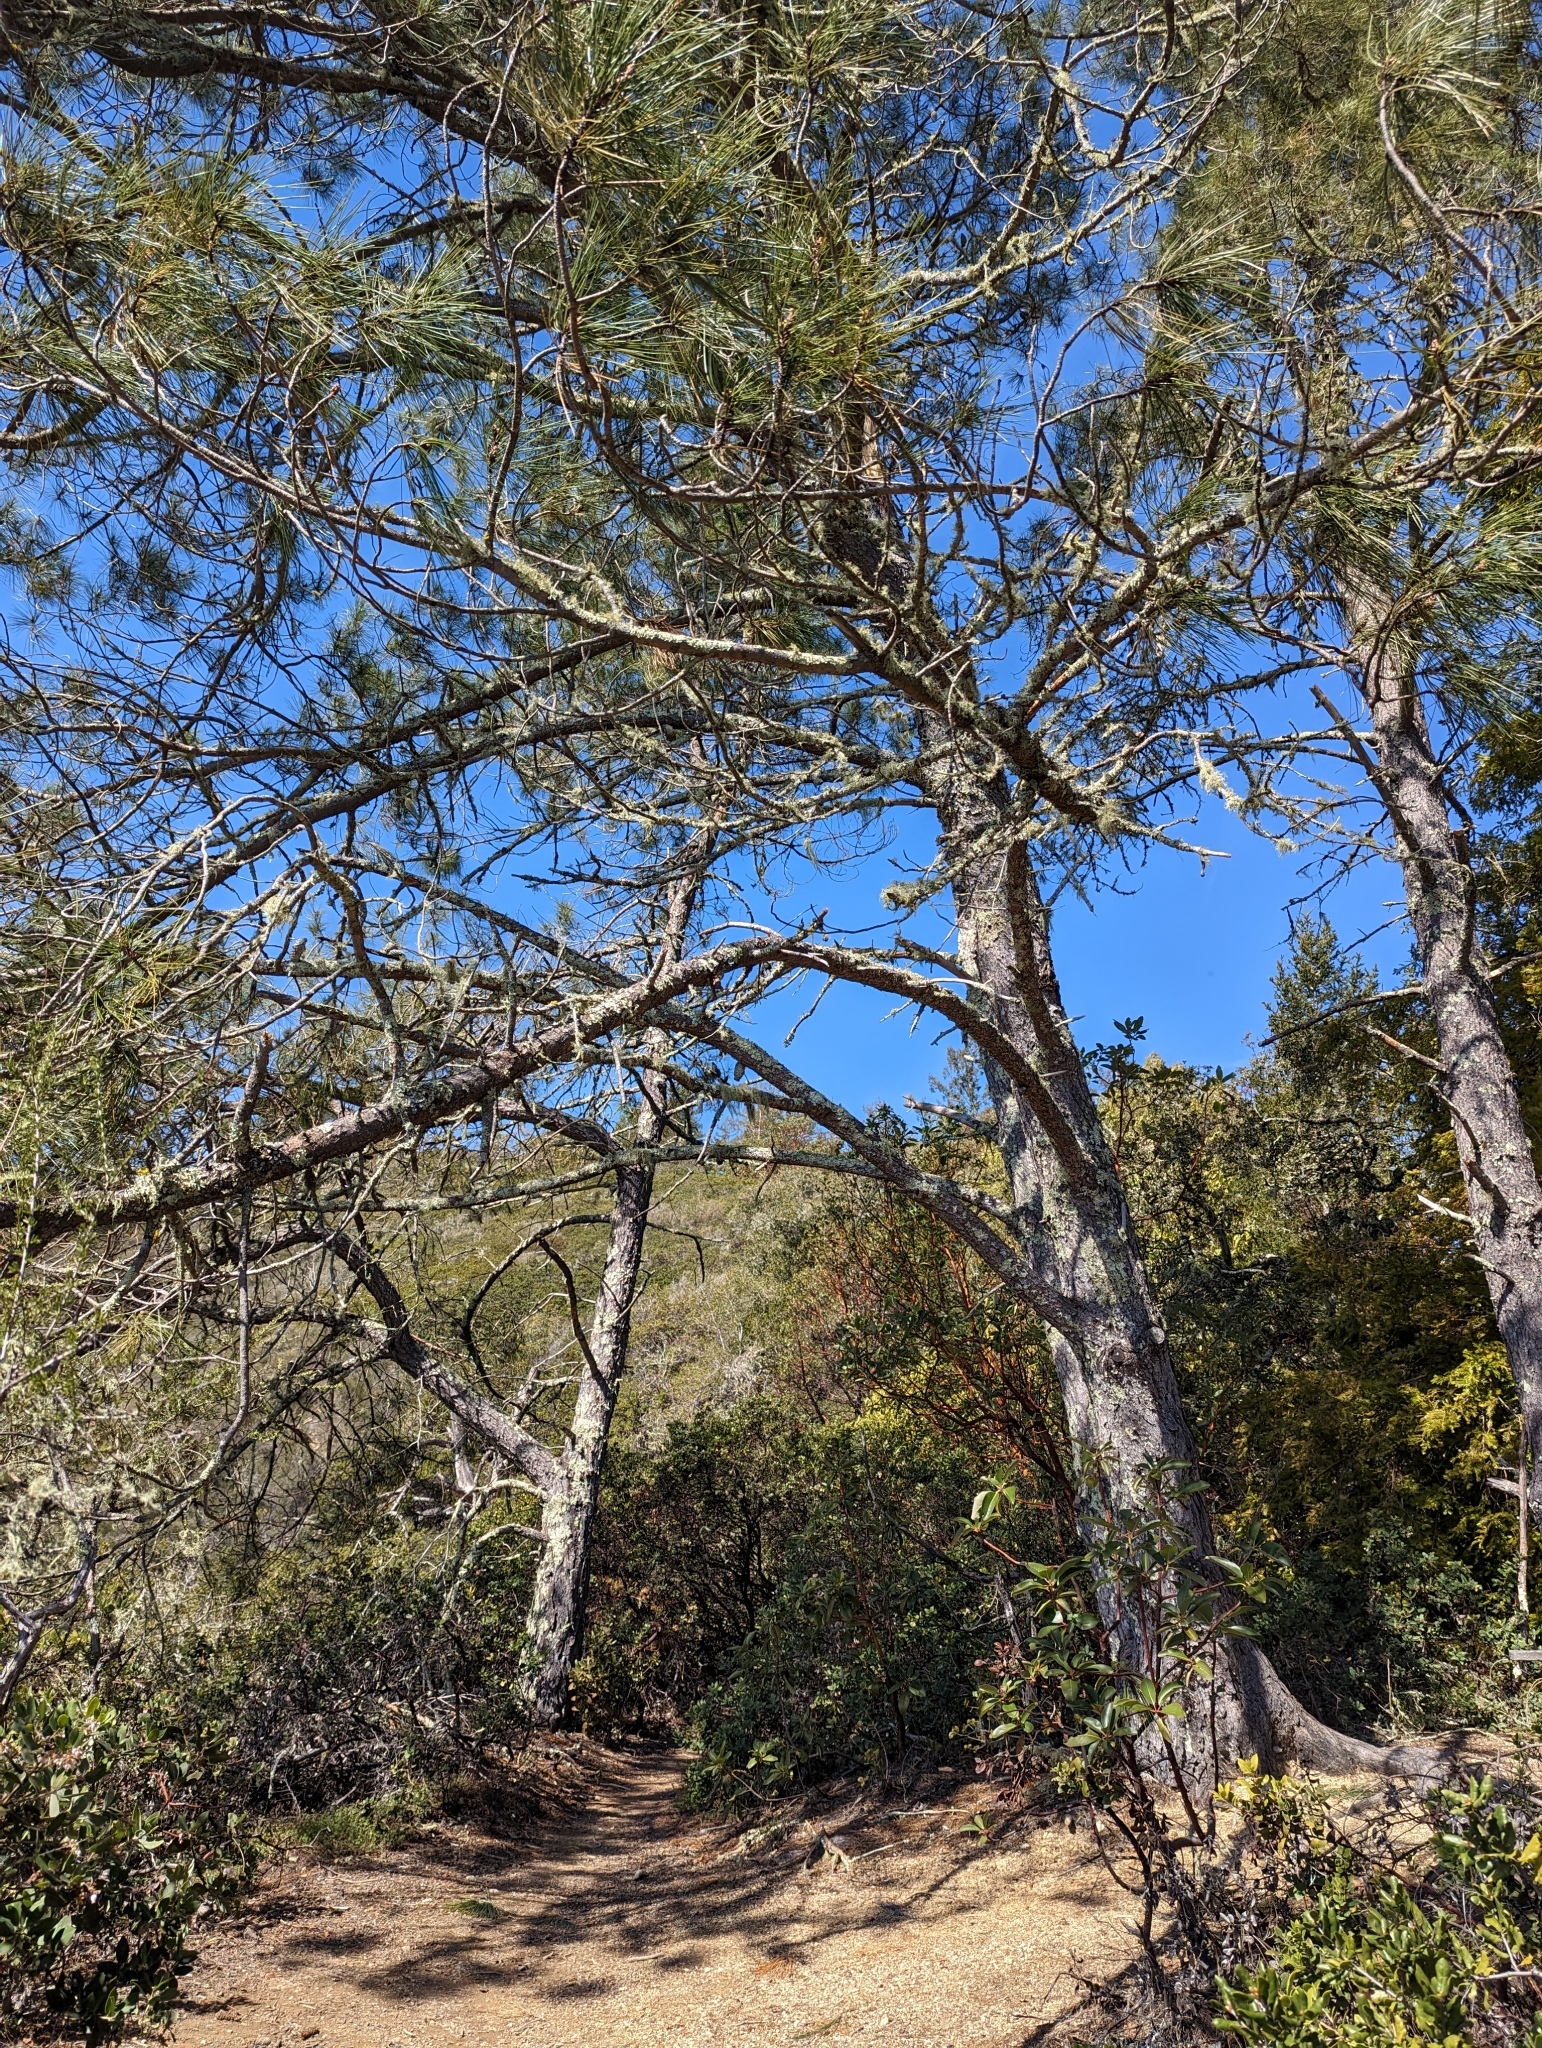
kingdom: Plantae
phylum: Tracheophyta
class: Pinopsida
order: Pinales
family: Pinaceae
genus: Pinus
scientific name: Pinus attenuata
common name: Knobcone pine
